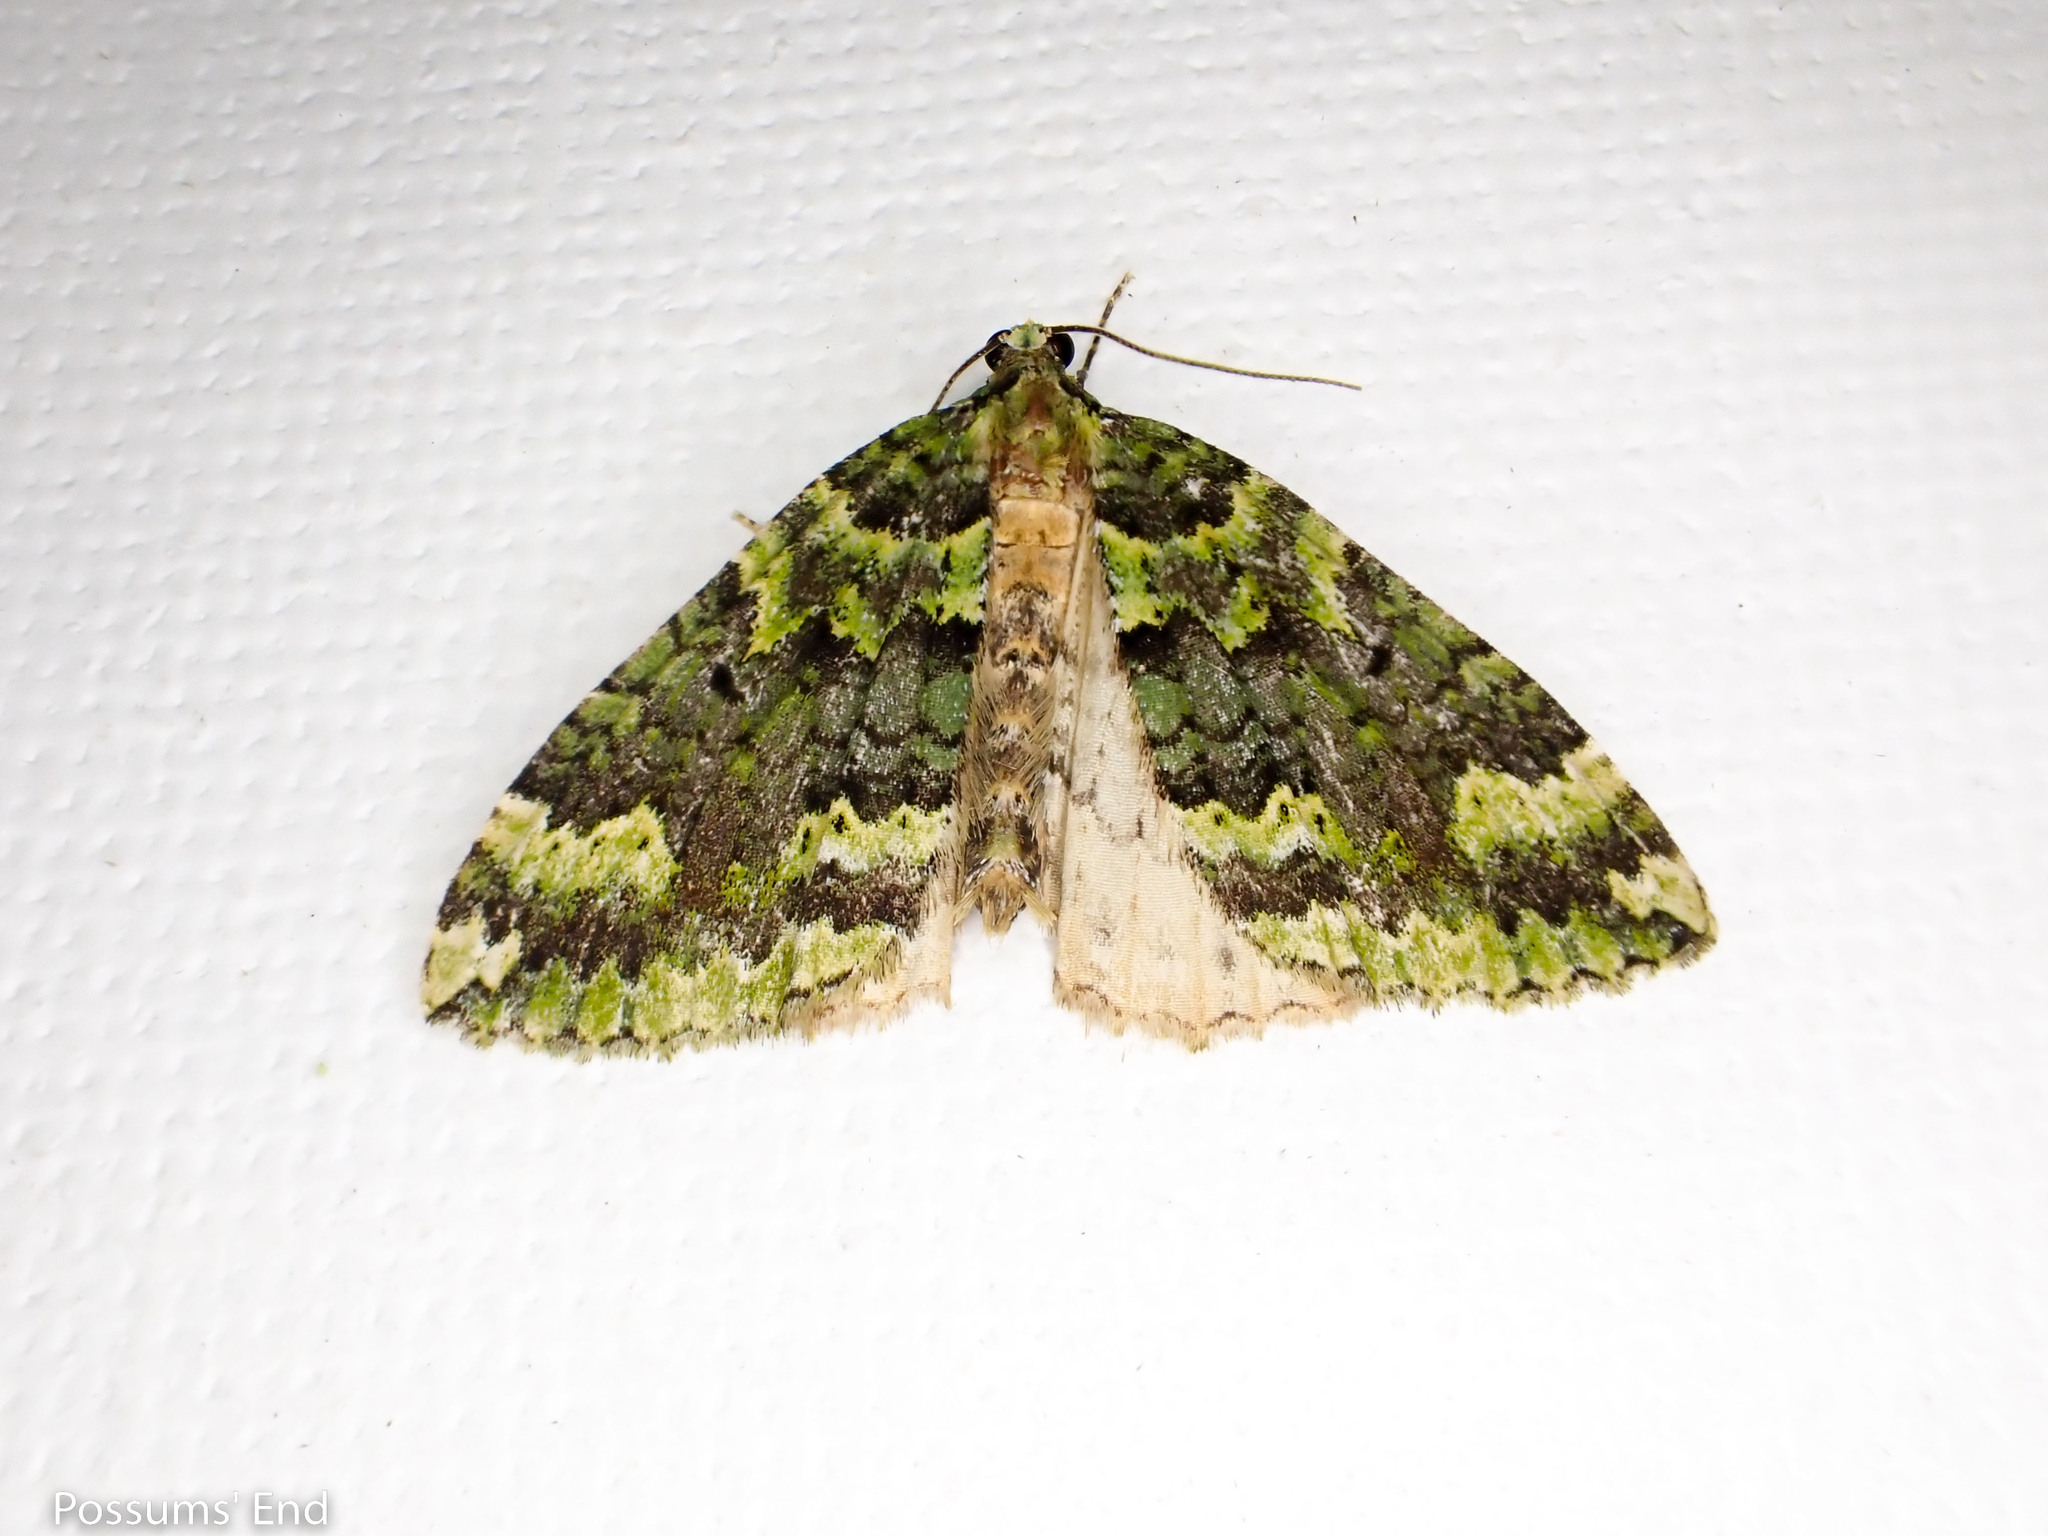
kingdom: Animalia
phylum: Arthropoda
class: Insecta
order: Lepidoptera
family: Geometridae
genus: Austrocidaria
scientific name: Austrocidaria callichlora
